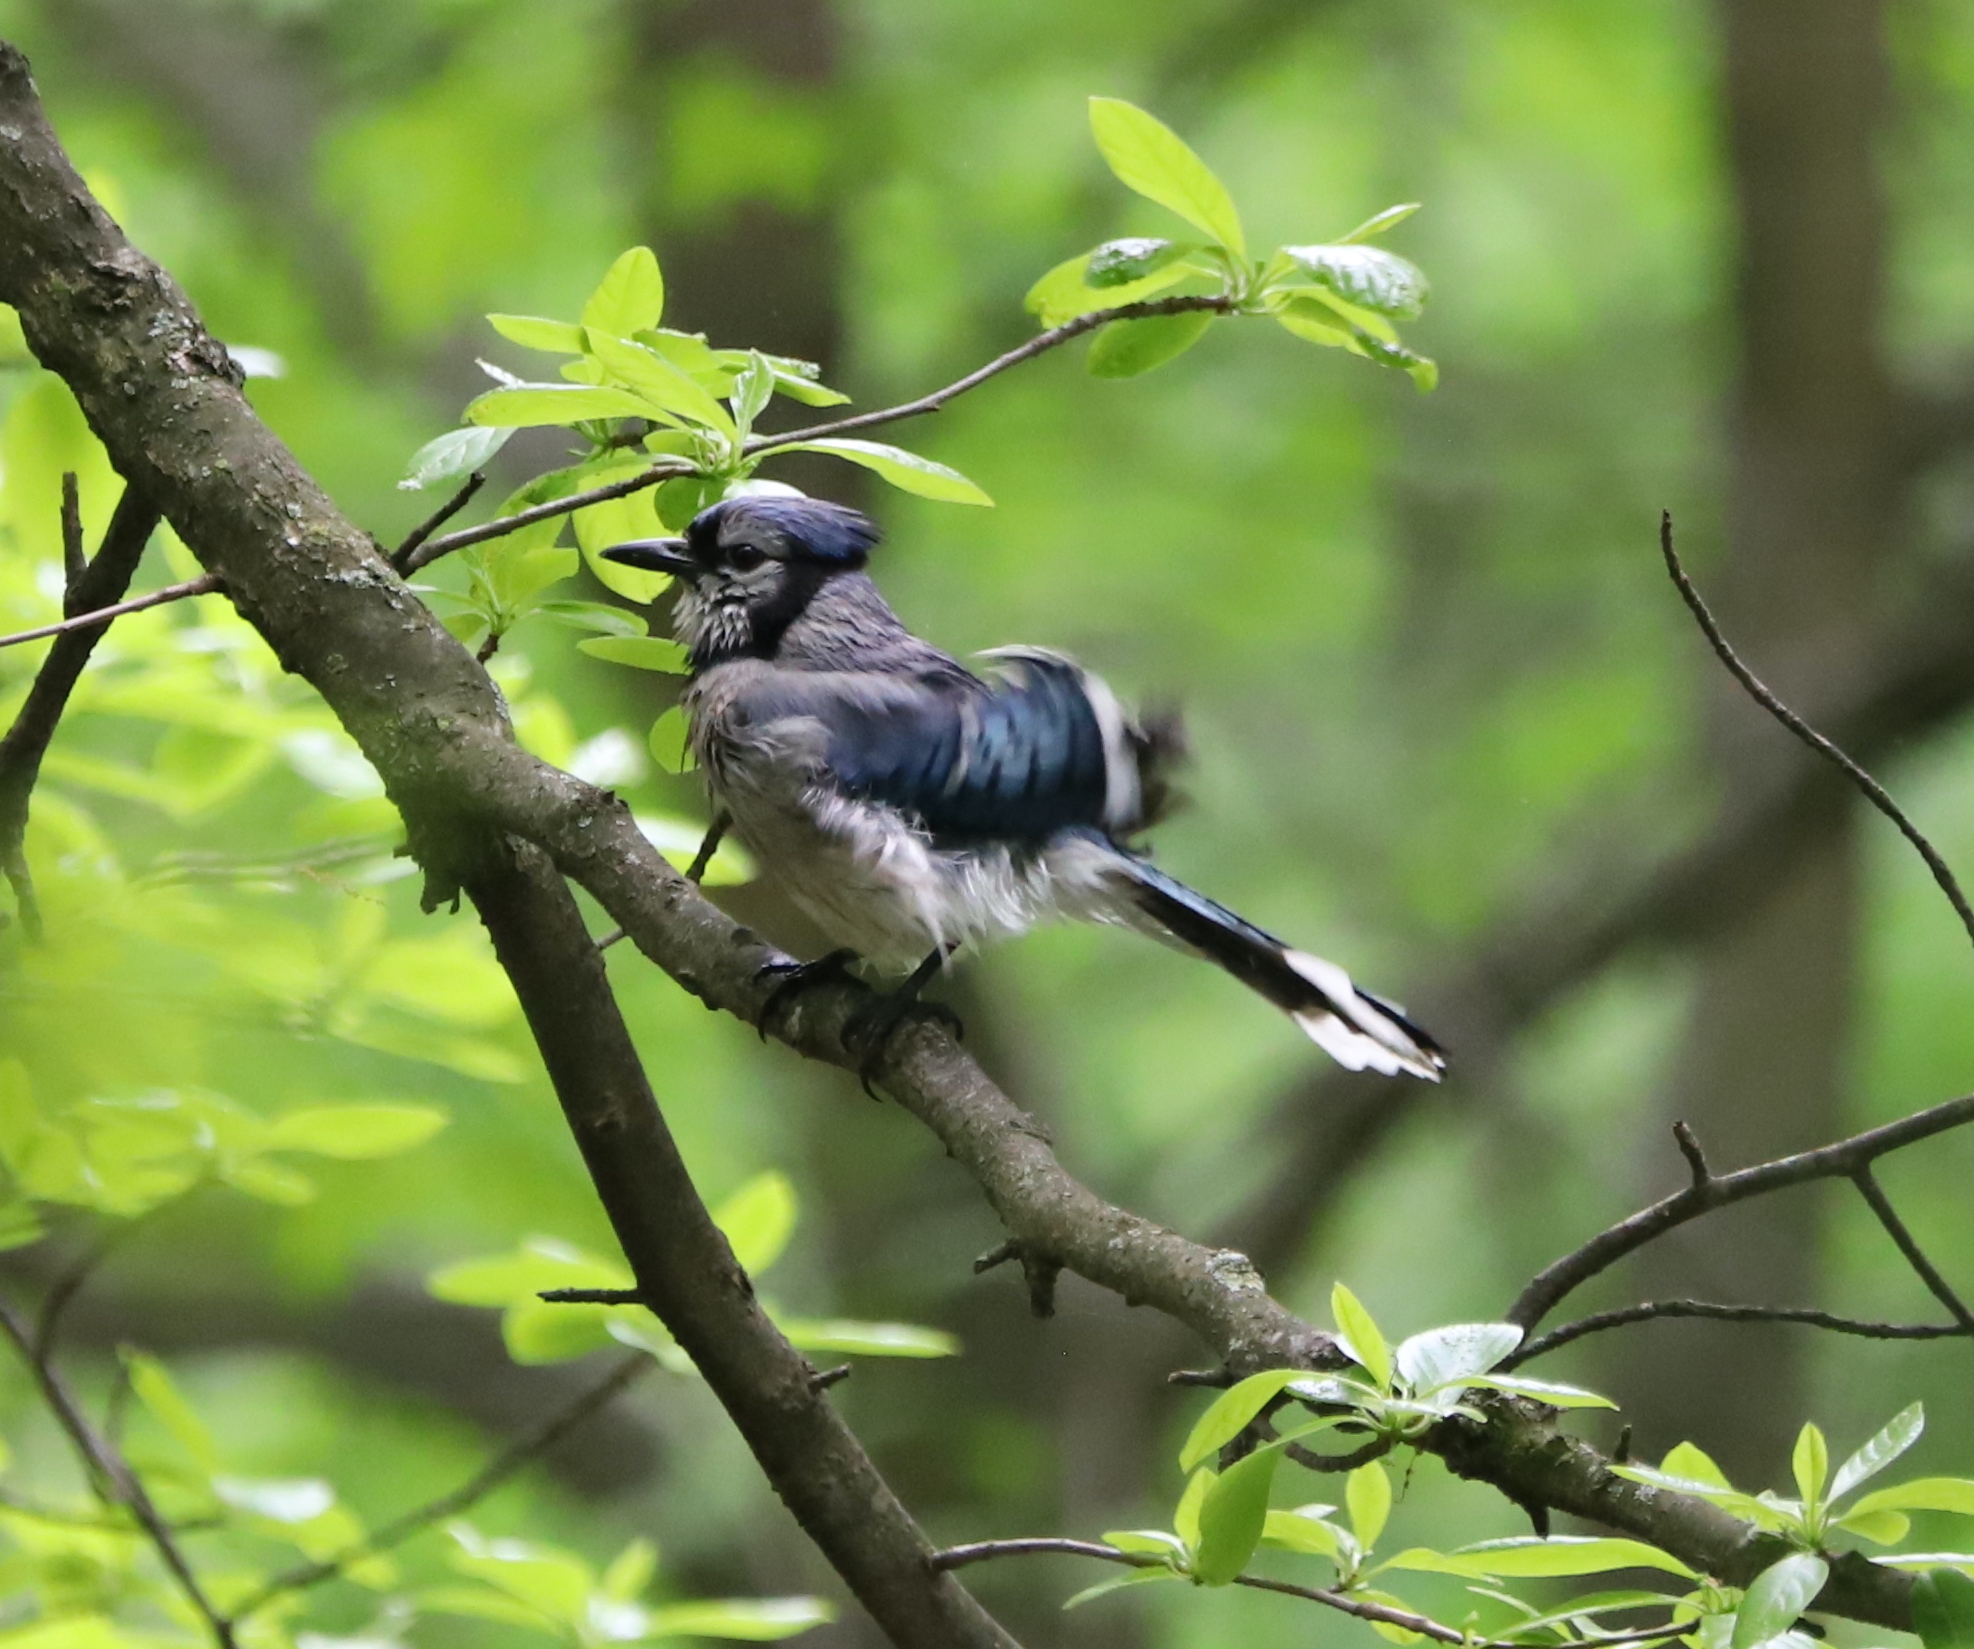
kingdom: Animalia
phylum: Chordata
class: Aves
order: Passeriformes
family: Corvidae
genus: Cyanocitta
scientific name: Cyanocitta cristata
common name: Blue jay
